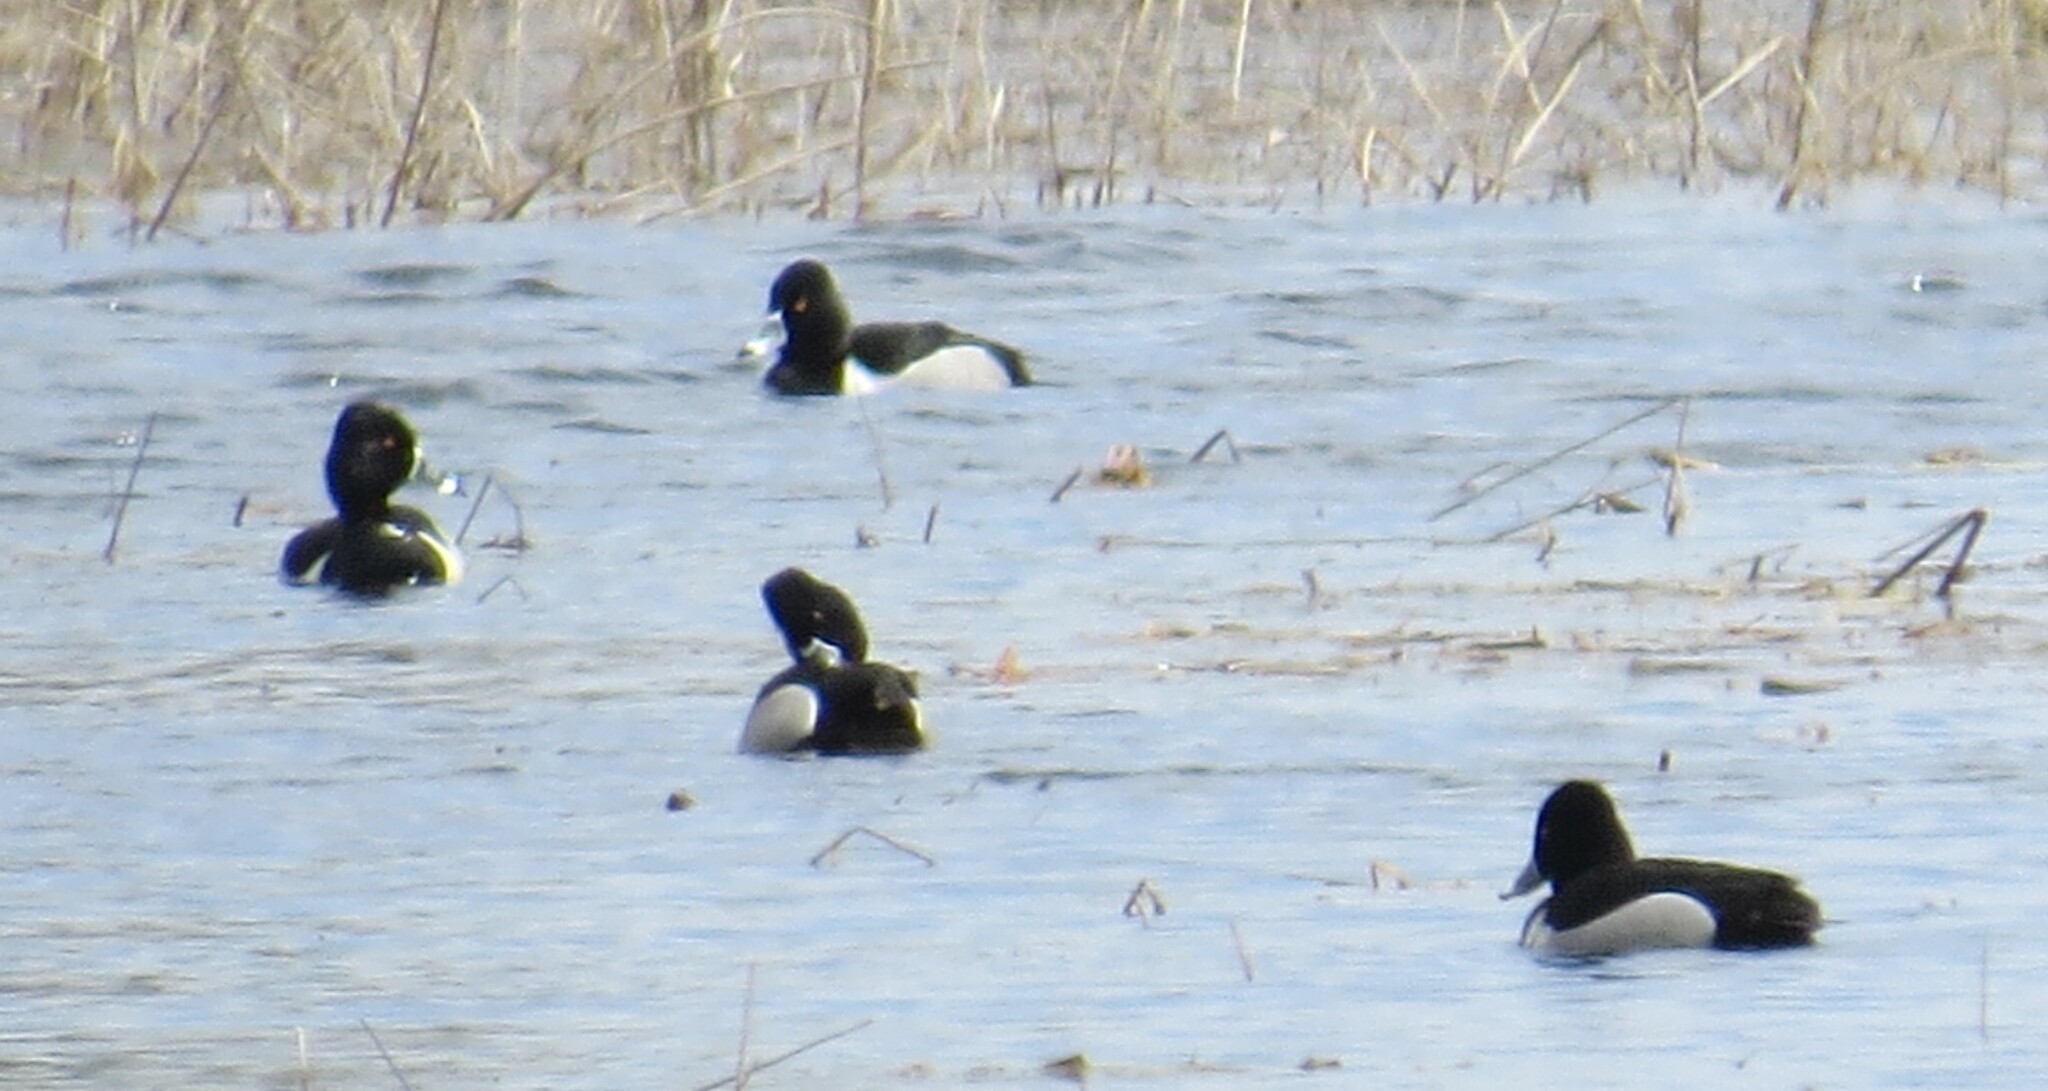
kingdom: Animalia
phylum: Chordata
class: Aves
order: Anseriformes
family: Anatidae
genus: Aythya
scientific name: Aythya collaris
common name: Ring-necked duck
